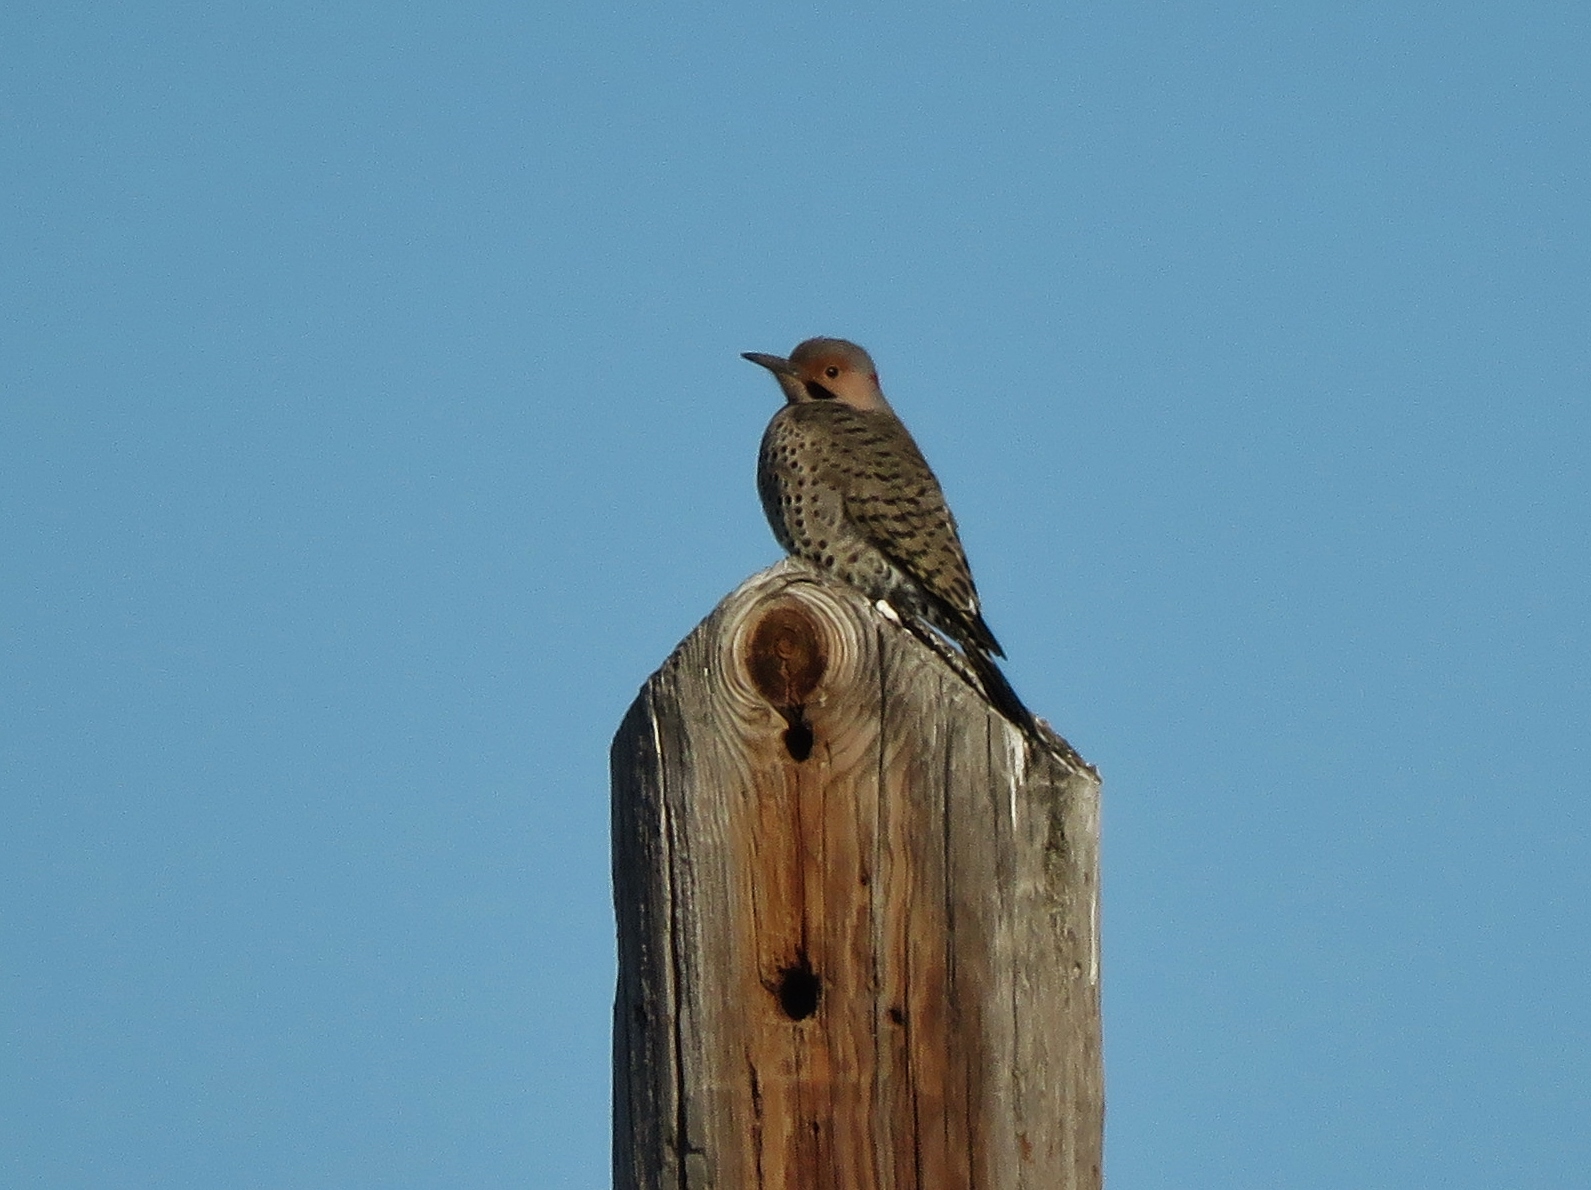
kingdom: Animalia
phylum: Chordata
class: Aves
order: Piciformes
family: Picidae
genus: Colaptes
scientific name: Colaptes auratus
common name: Northern flicker
